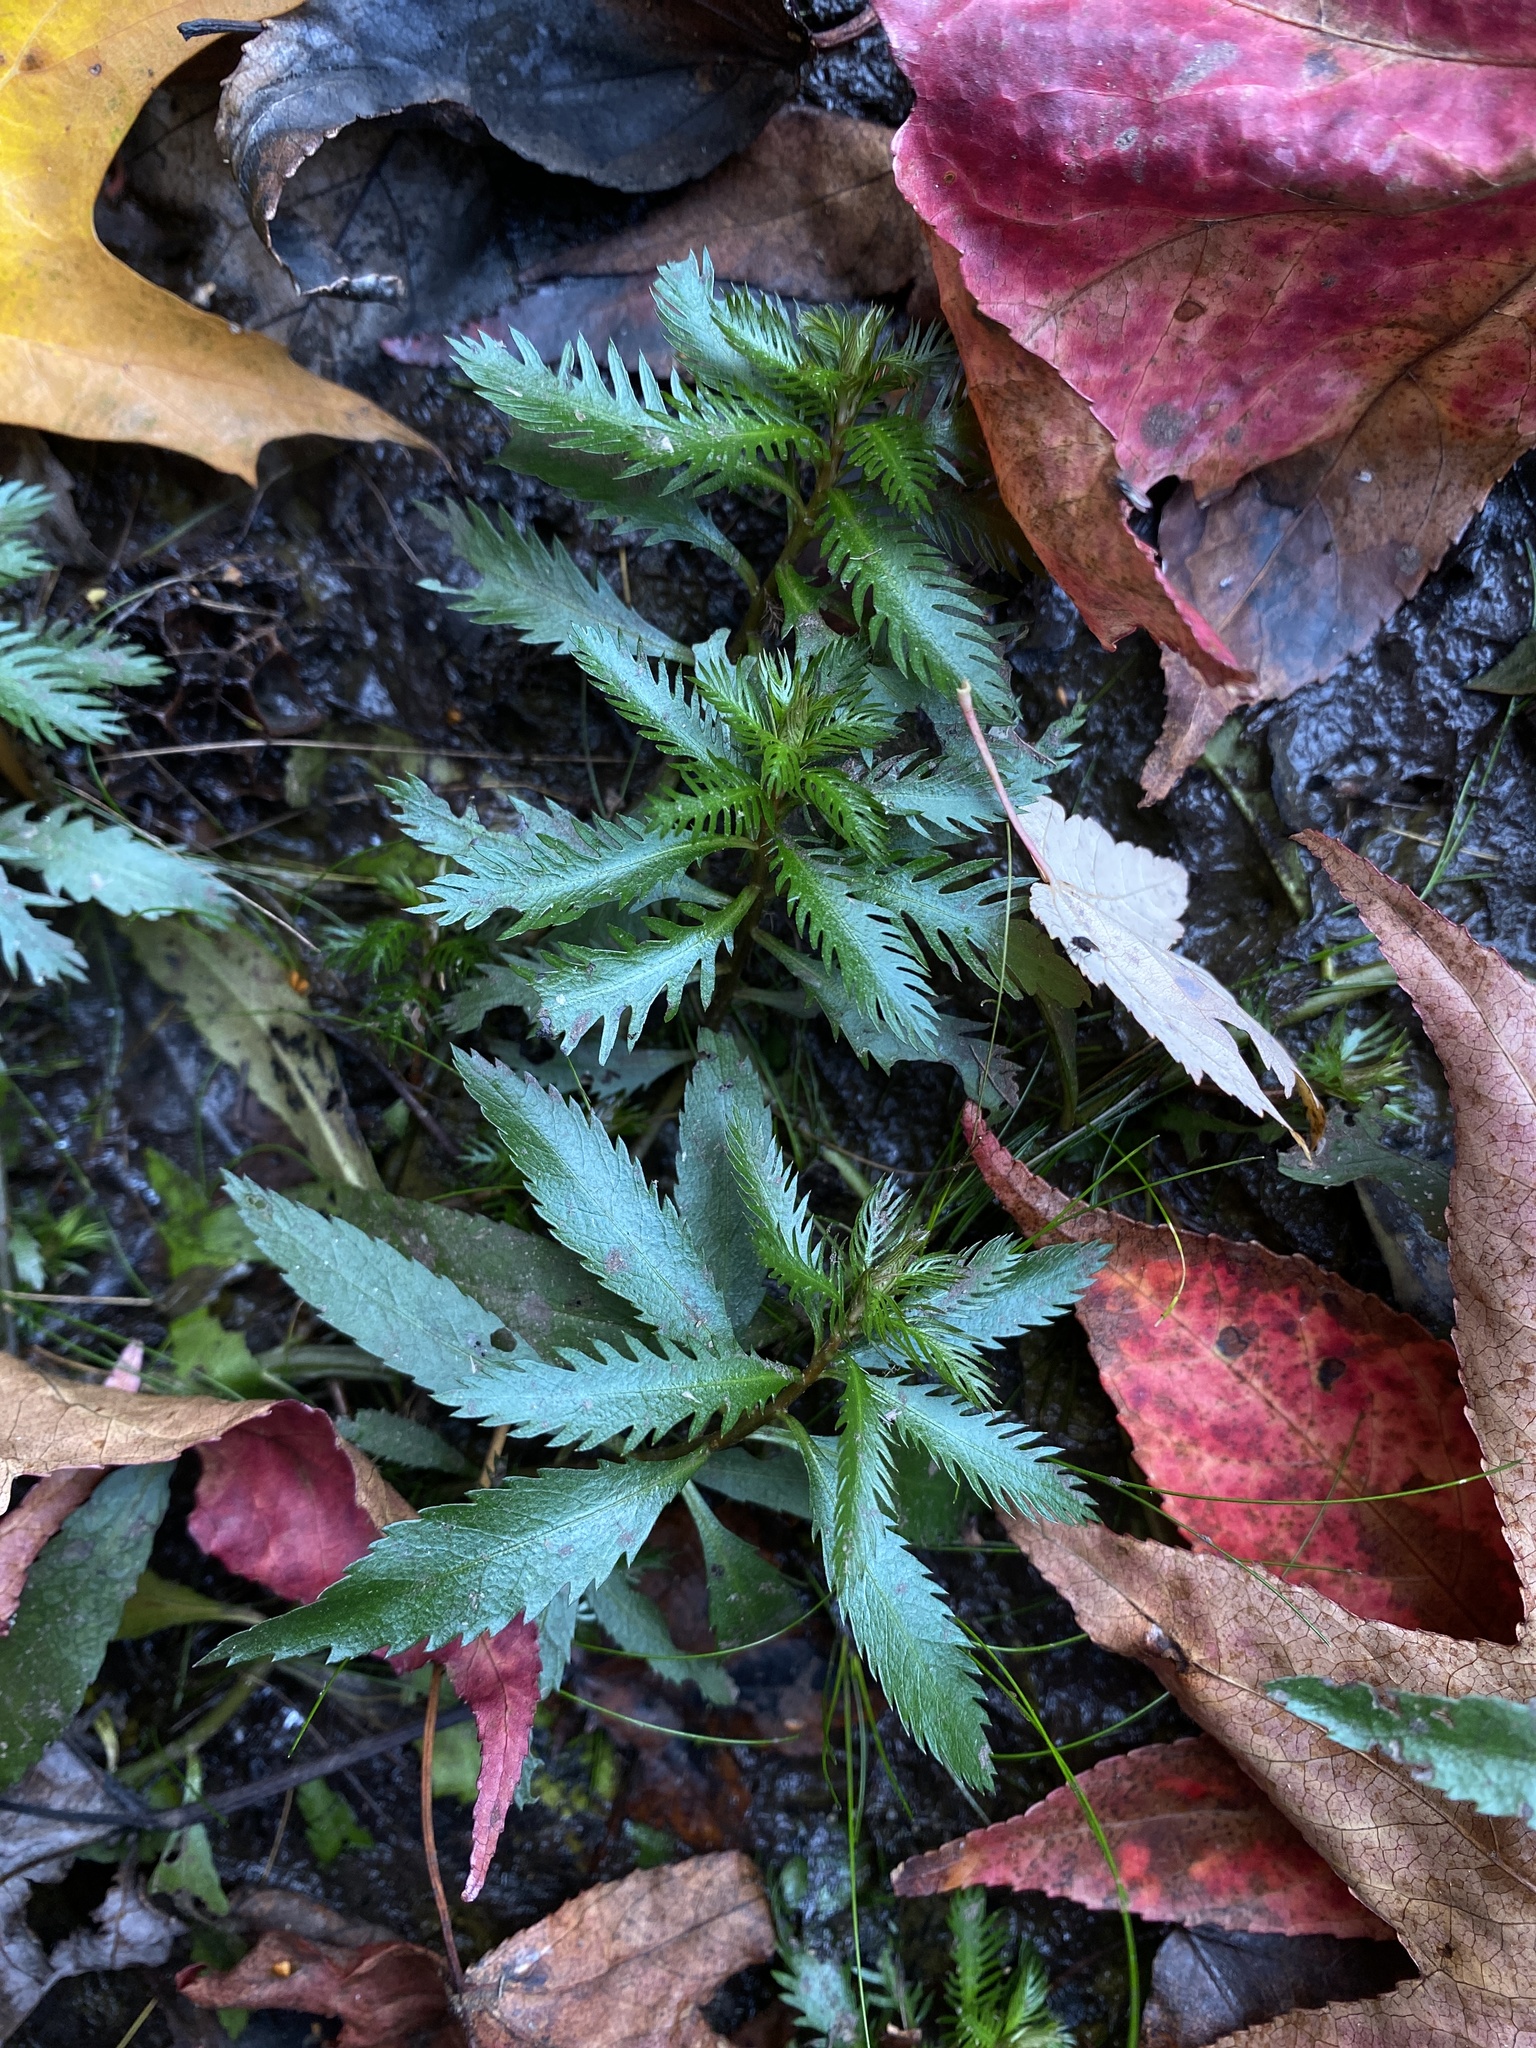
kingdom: Plantae
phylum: Tracheophyta
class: Magnoliopsida
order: Saxifragales
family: Haloragaceae
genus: Proserpinaca
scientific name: Proserpinaca palustris
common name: Marsh mermaidweed
